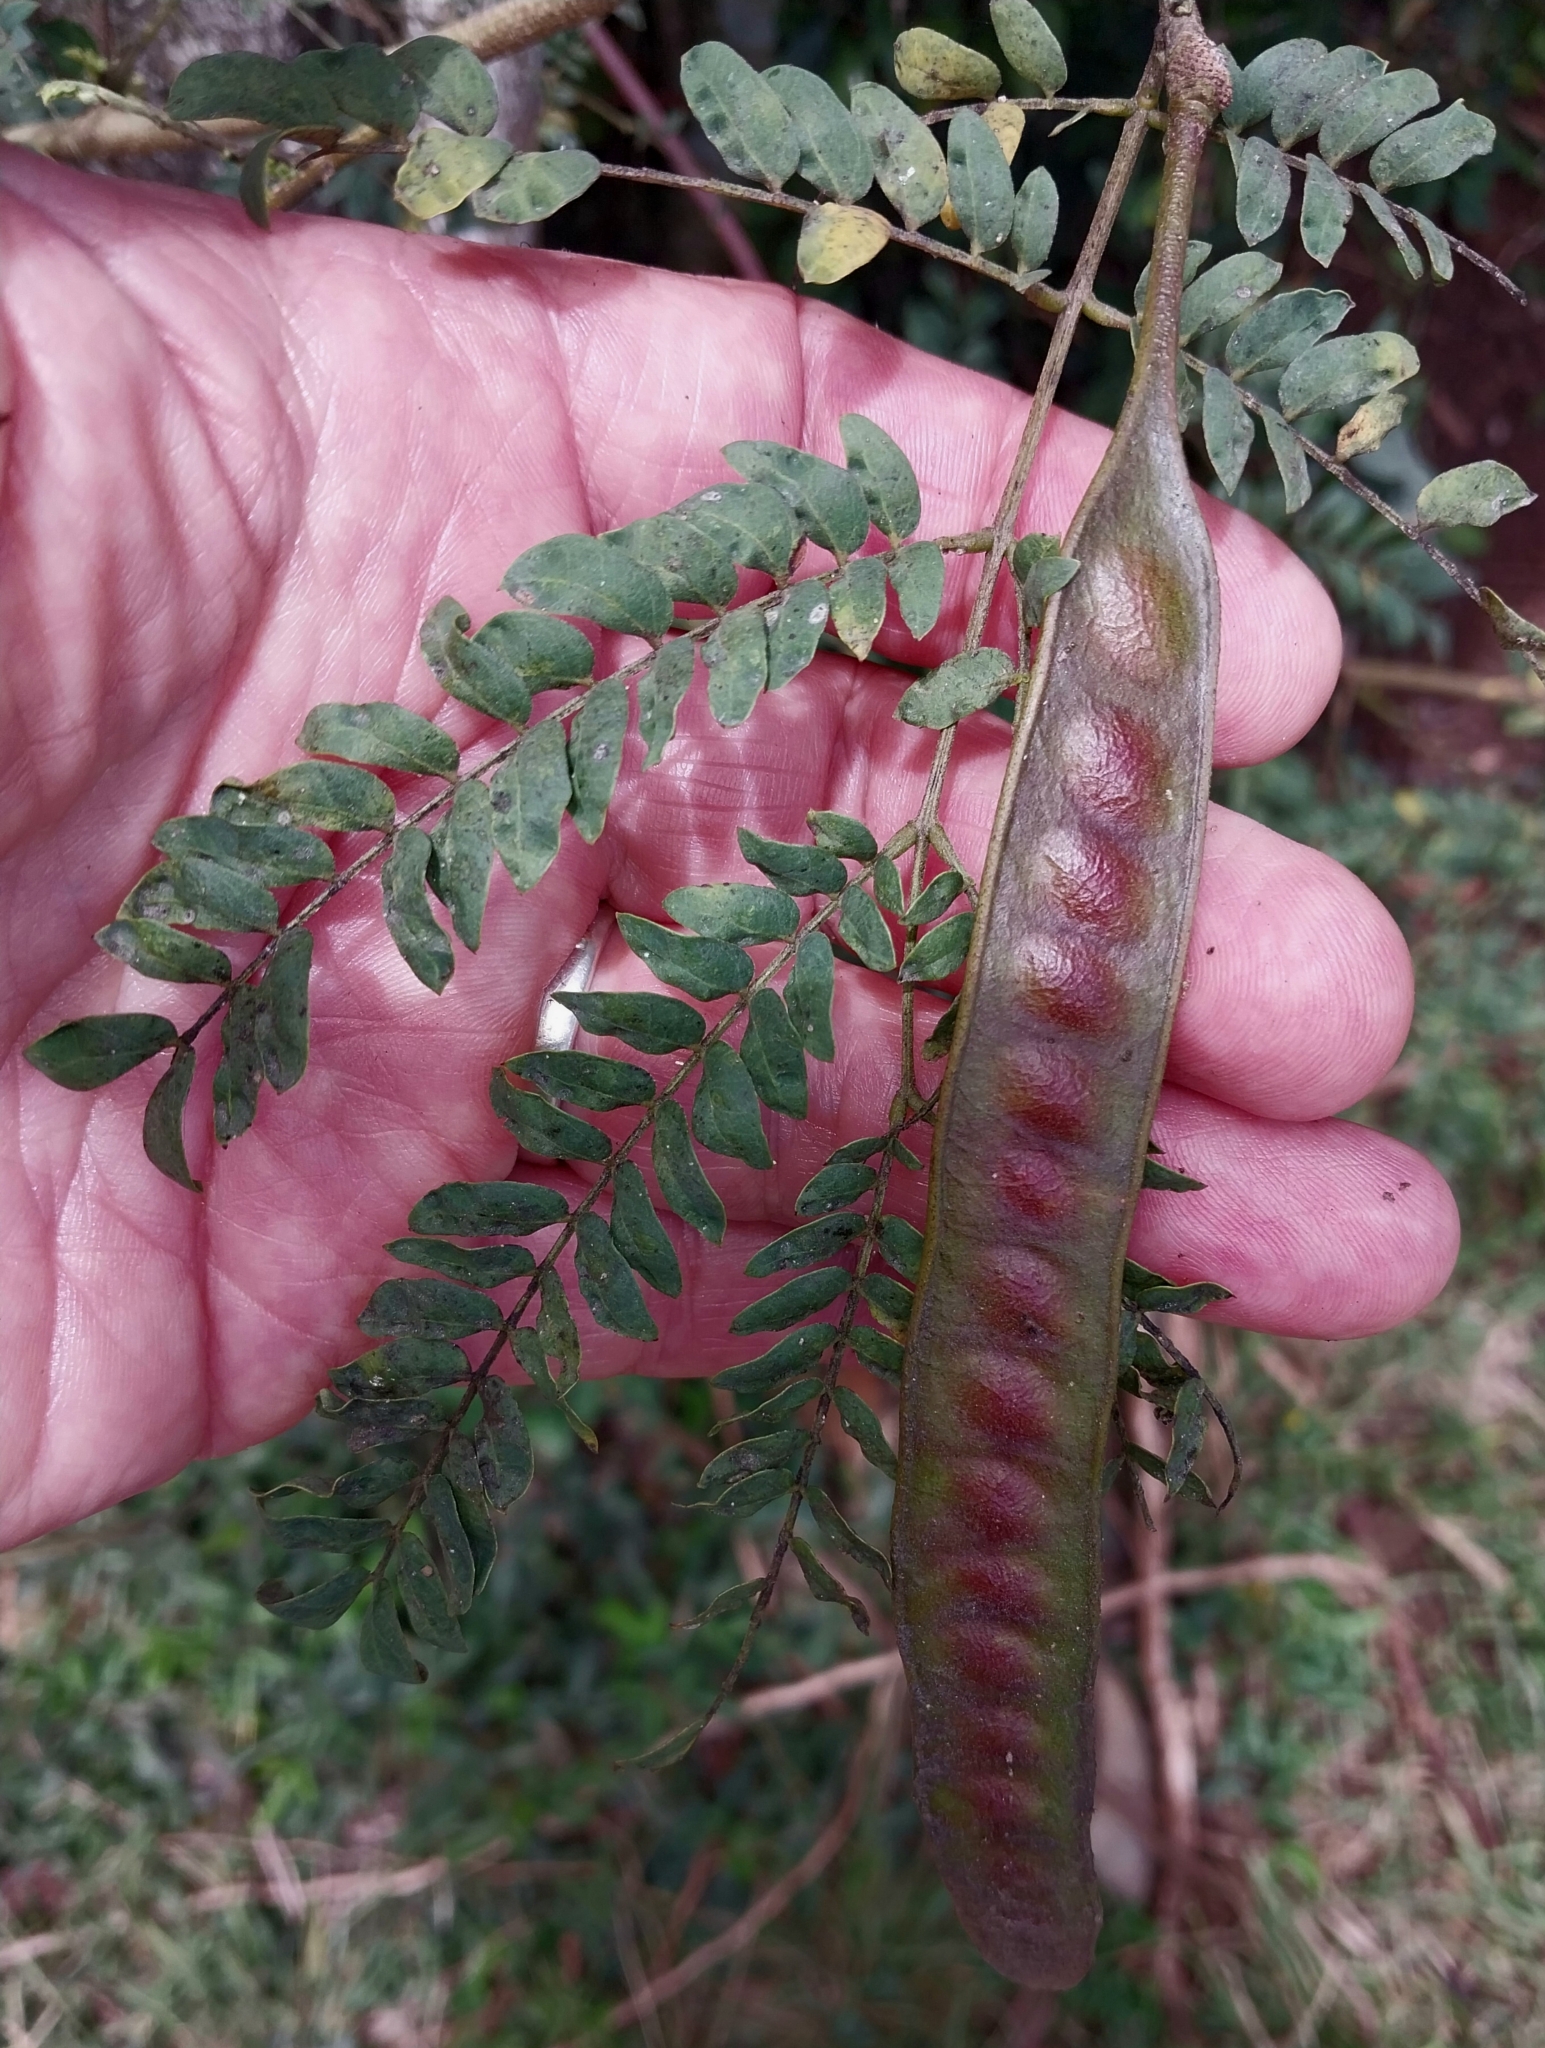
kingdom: Plantae
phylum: Tracheophyta
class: Magnoliopsida
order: Fabales
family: Fabaceae
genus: Leucaena
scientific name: Leucaena leucocephala
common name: White leadtree
